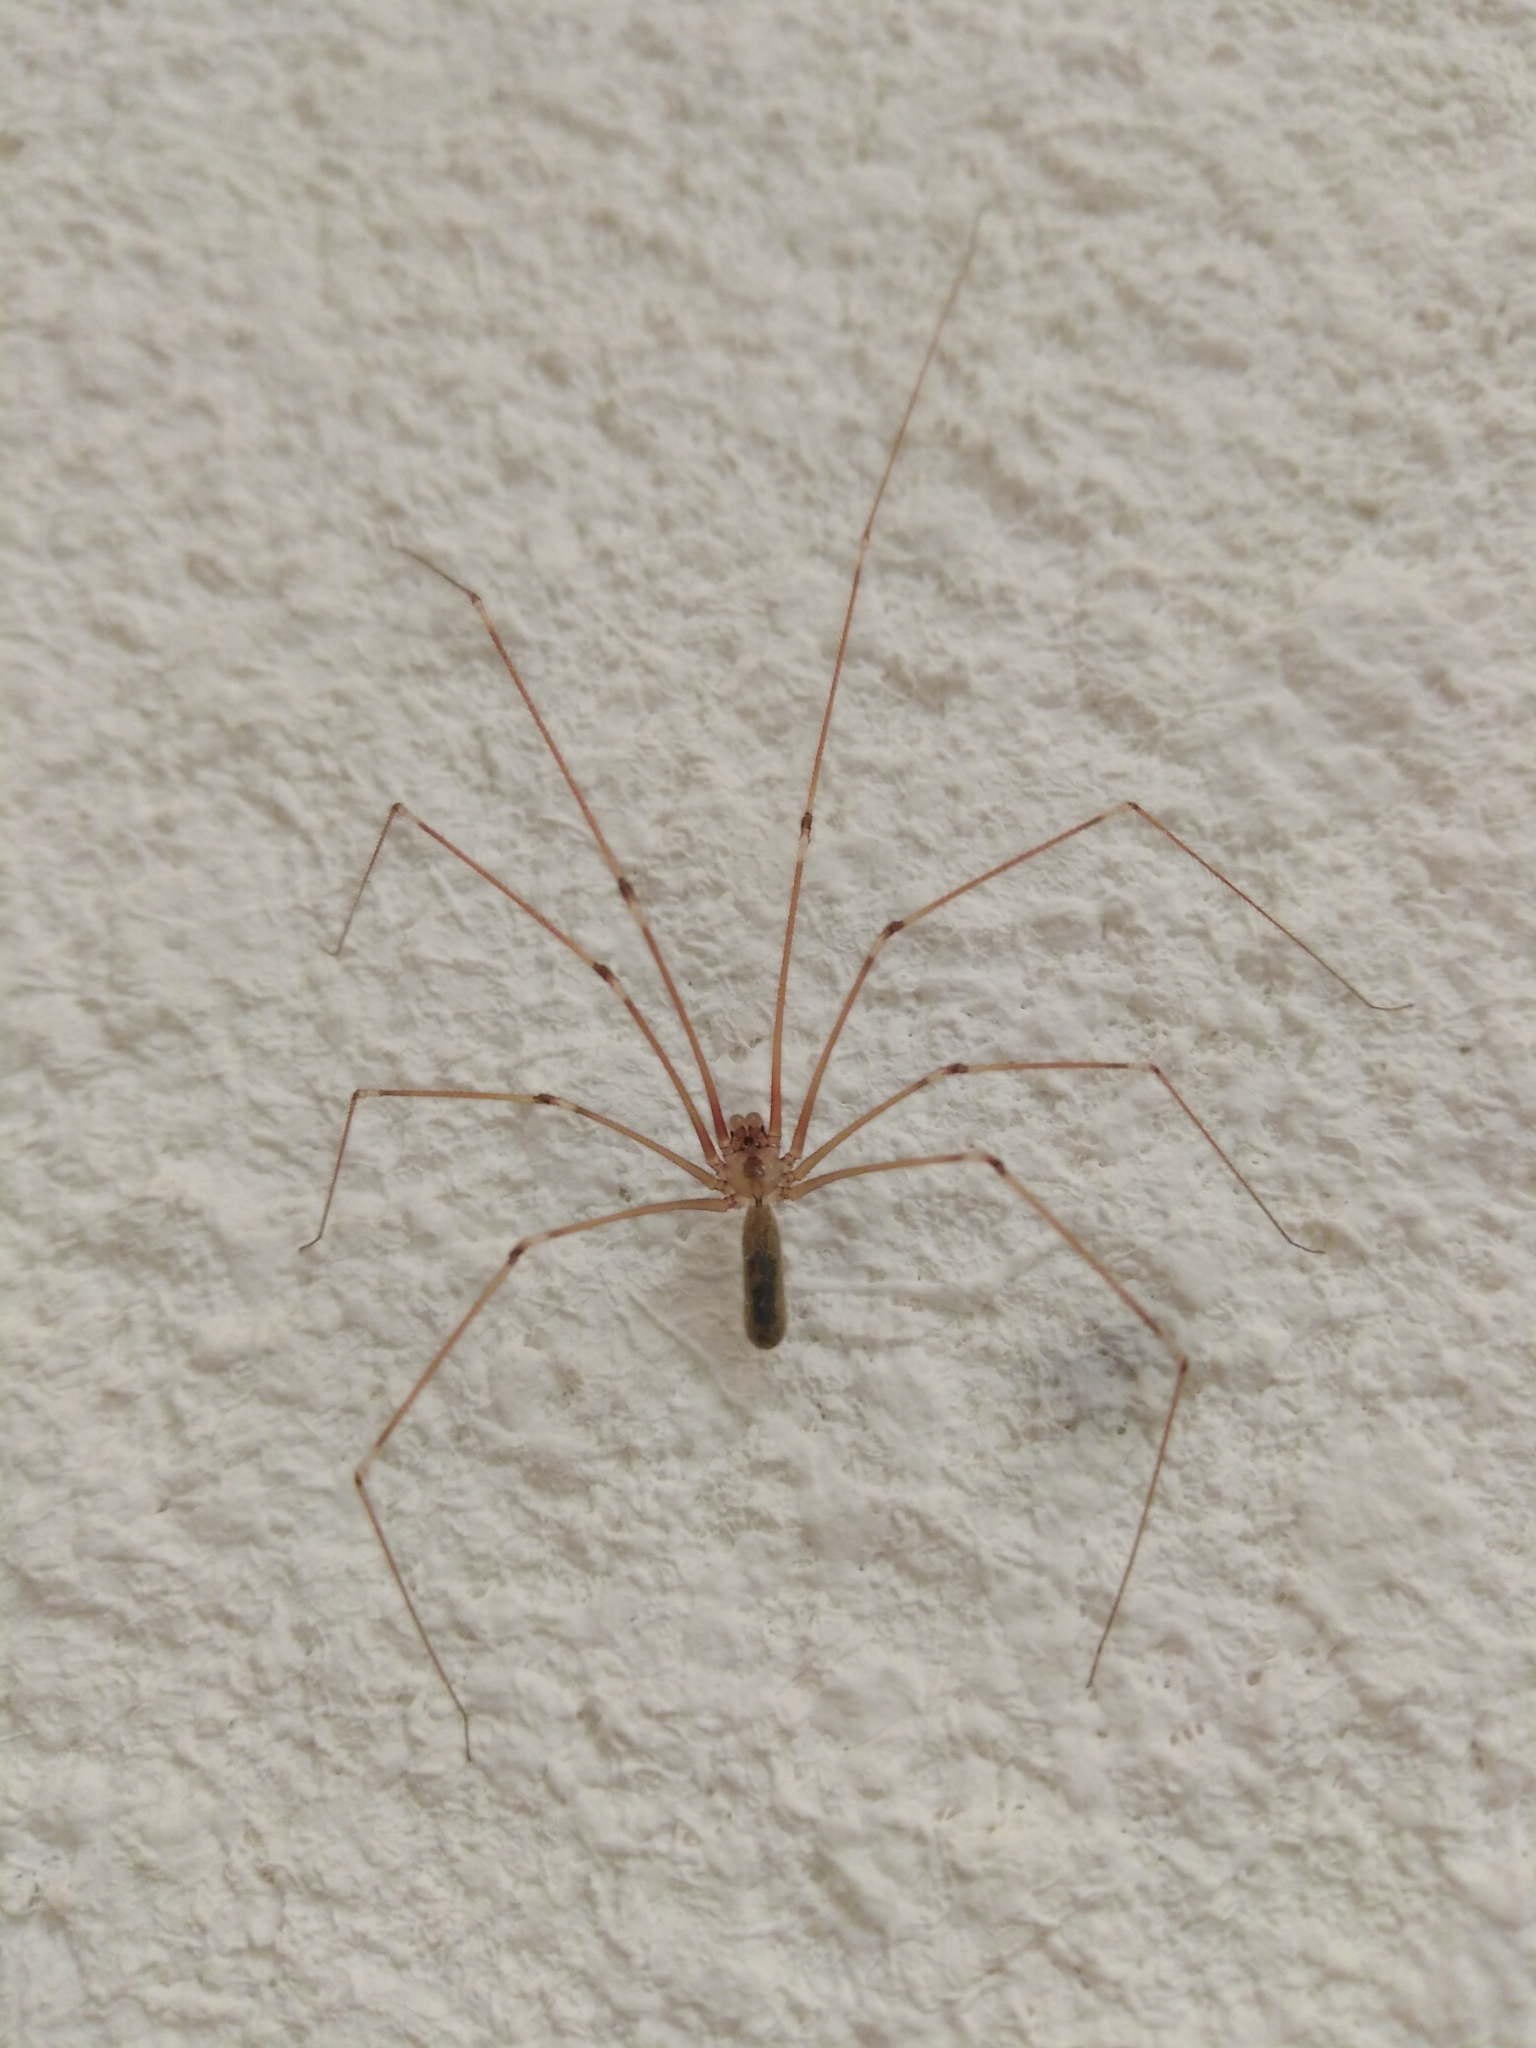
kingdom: Animalia
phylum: Arthropoda
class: Arachnida
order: Araneae
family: Pholcidae
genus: Pholcus
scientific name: Pholcus phalangioides
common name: Longbodied cellar spider
